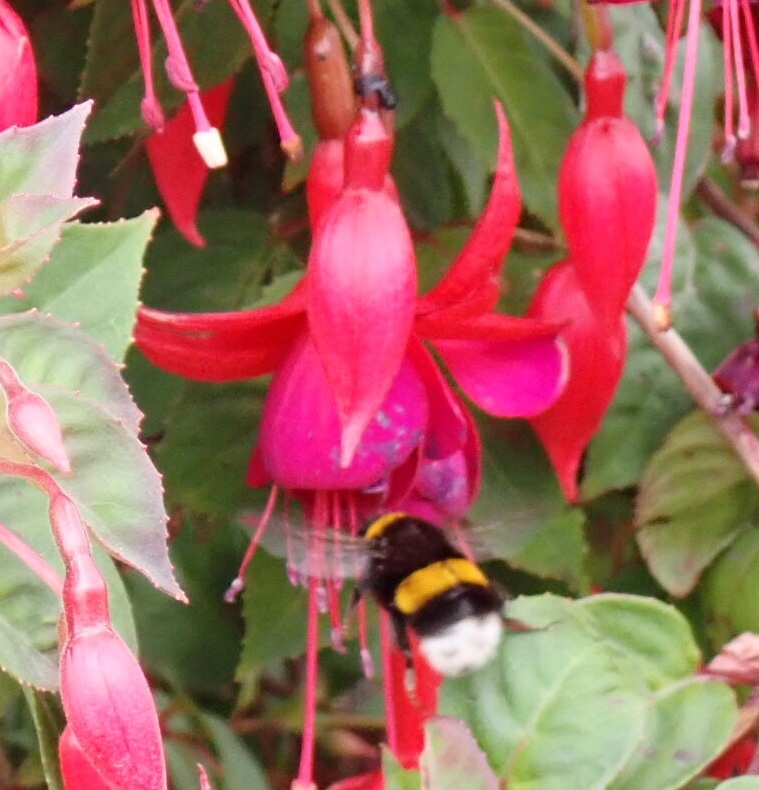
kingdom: Animalia
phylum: Arthropoda
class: Insecta
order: Hymenoptera
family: Apidae
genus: Bombus
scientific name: Bombus terrestris
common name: Buff-tailed bumblebee
